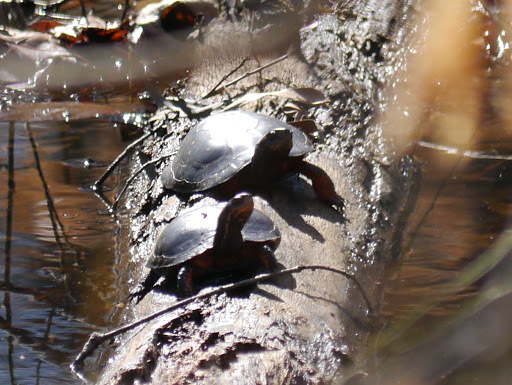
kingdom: Animalia
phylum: Chordata
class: Testudines
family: Emydidae
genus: Clemmys
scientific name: Clemmys guttata
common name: Spotted turtle
